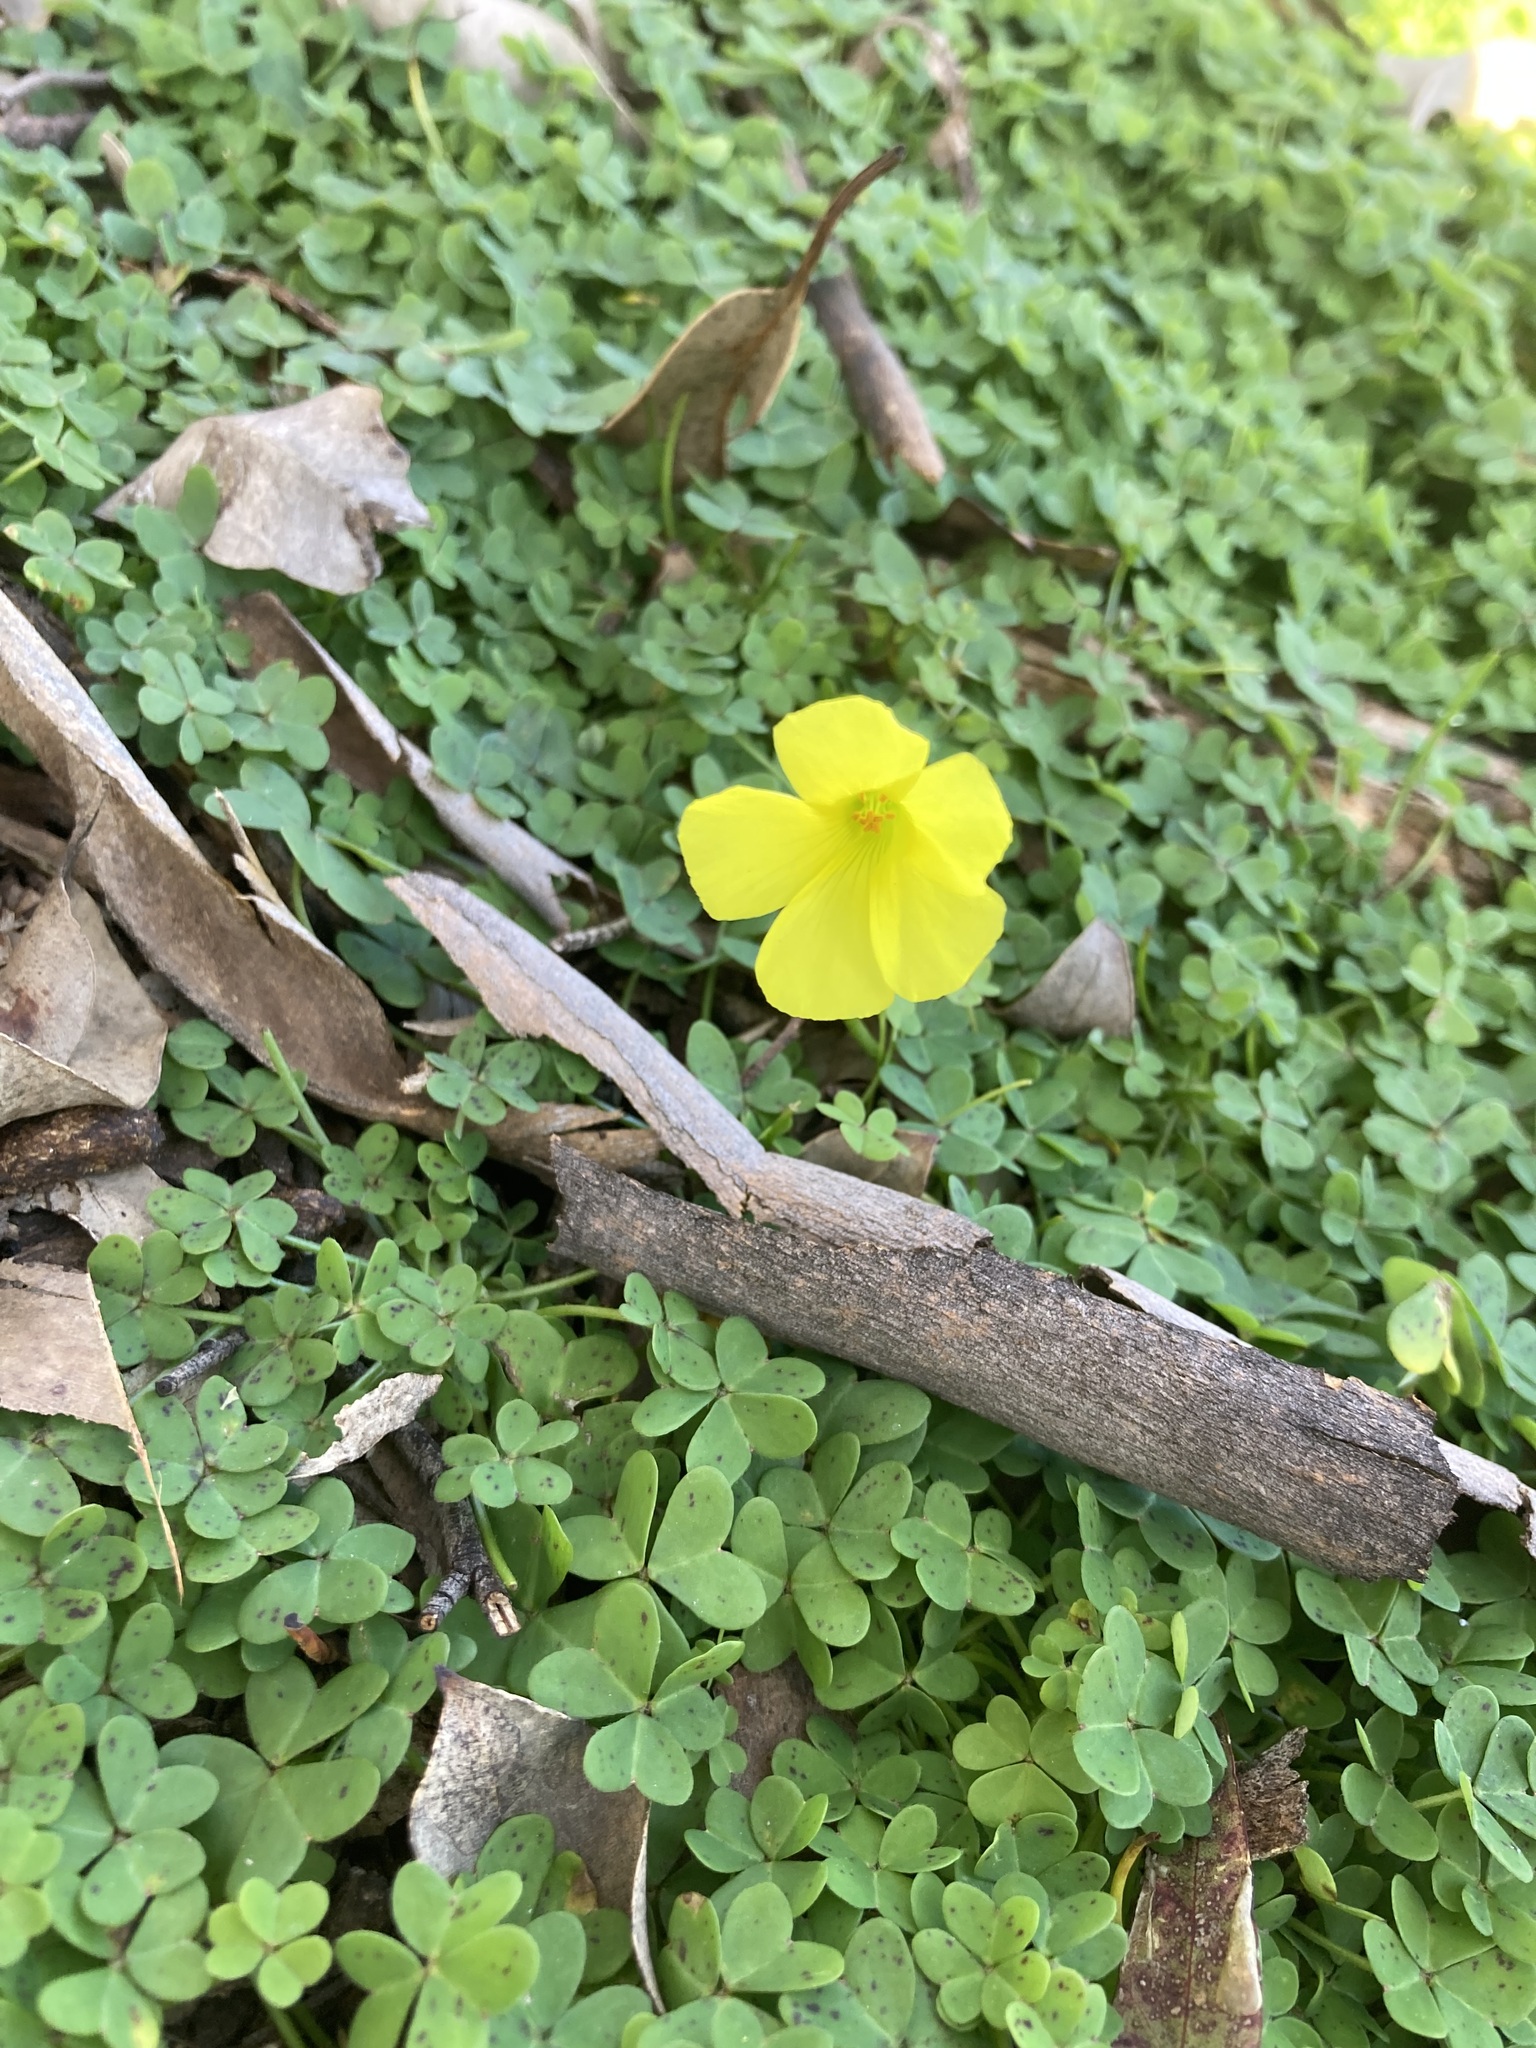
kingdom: Plantae
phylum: Tracheophyta
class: Magnoliopsida
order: Oxalidales
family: Oxalidaceae
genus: Oxalis
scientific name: Oxalis pes-caprae
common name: Bermuda-buttercup
